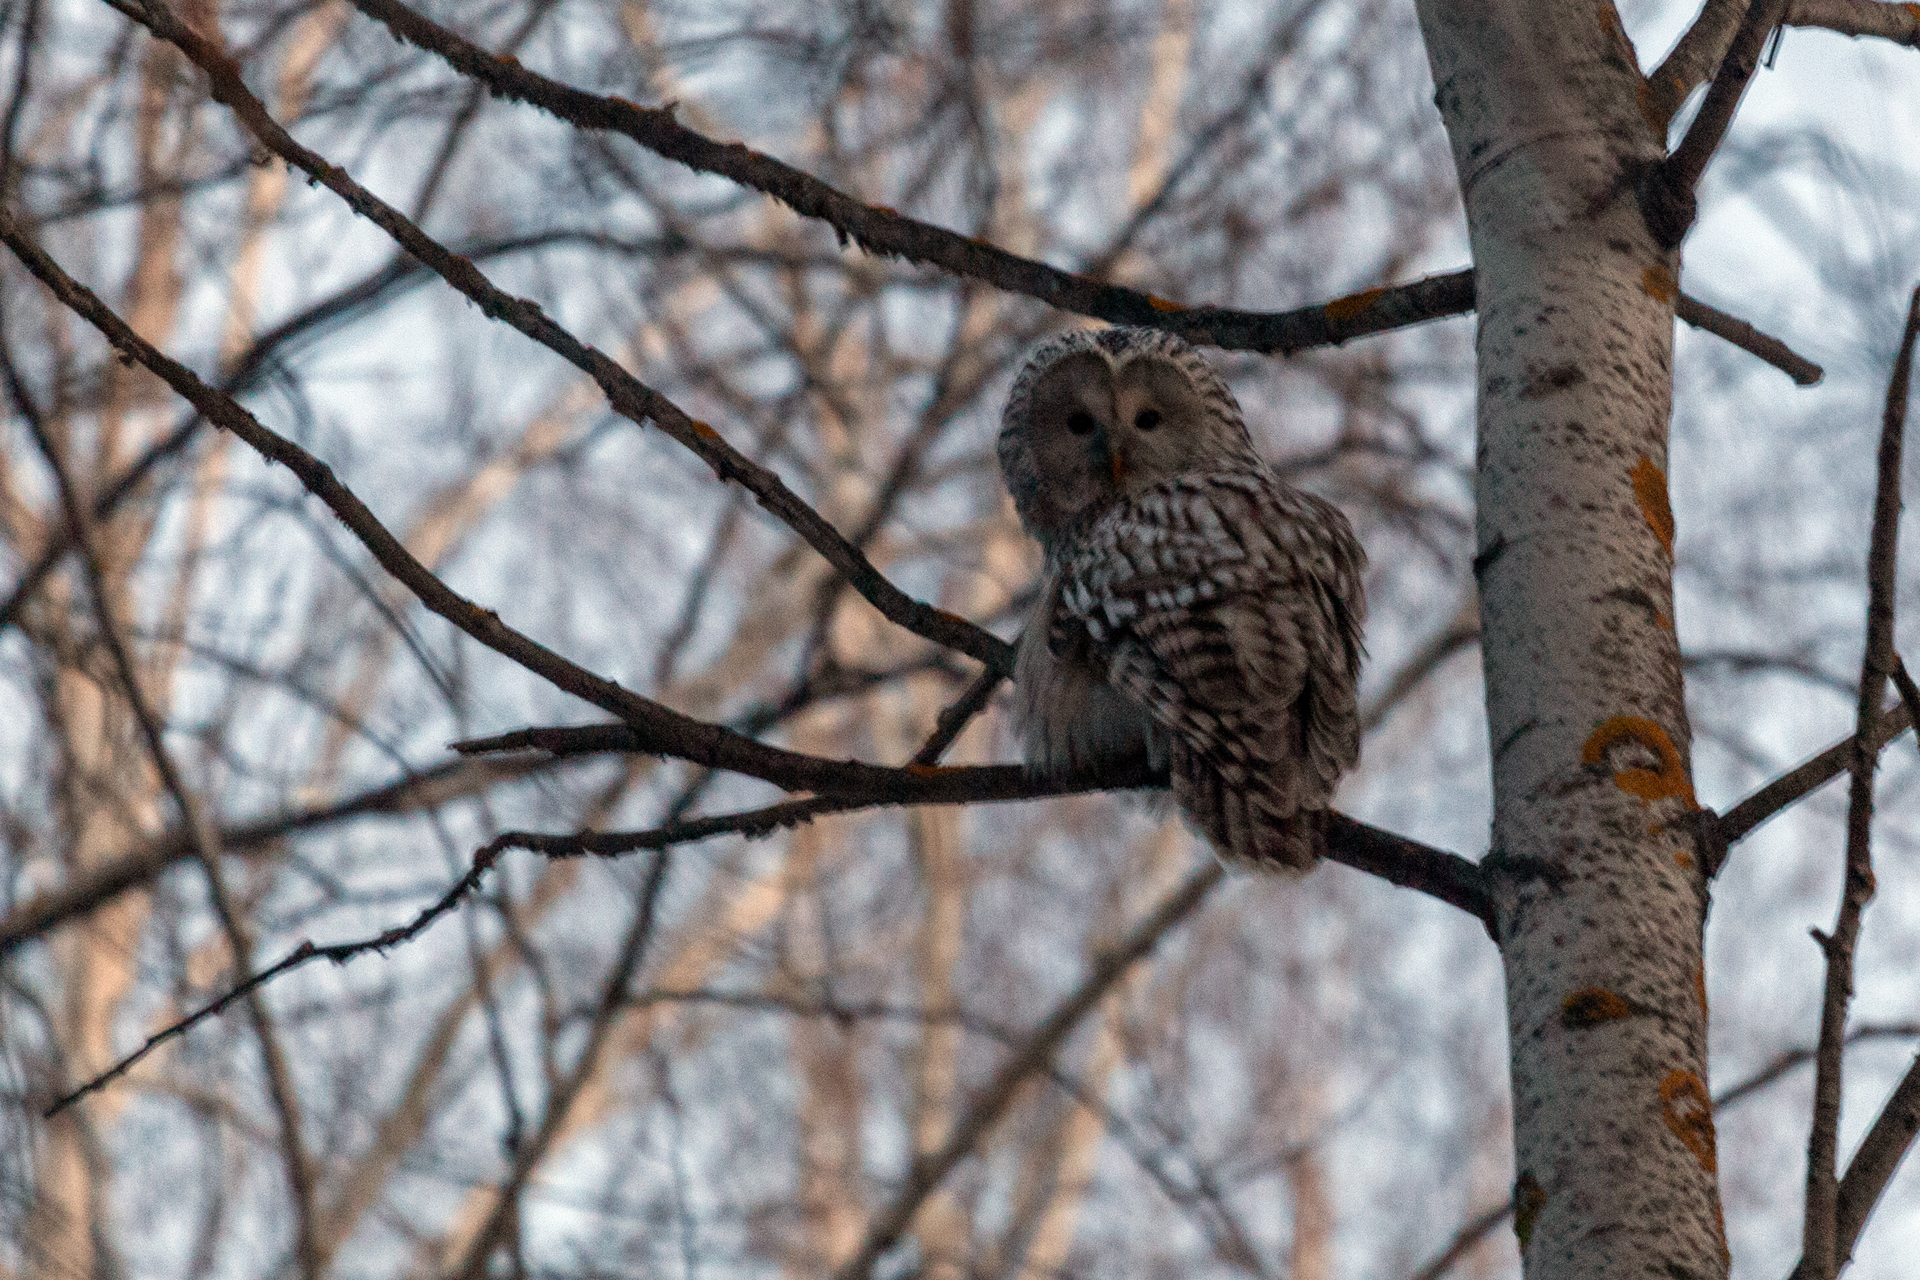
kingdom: Animalia
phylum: Chordata
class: Aves
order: Strigiformes
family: Strigidae
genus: Strix
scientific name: Strix uralensis
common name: Ural owl
